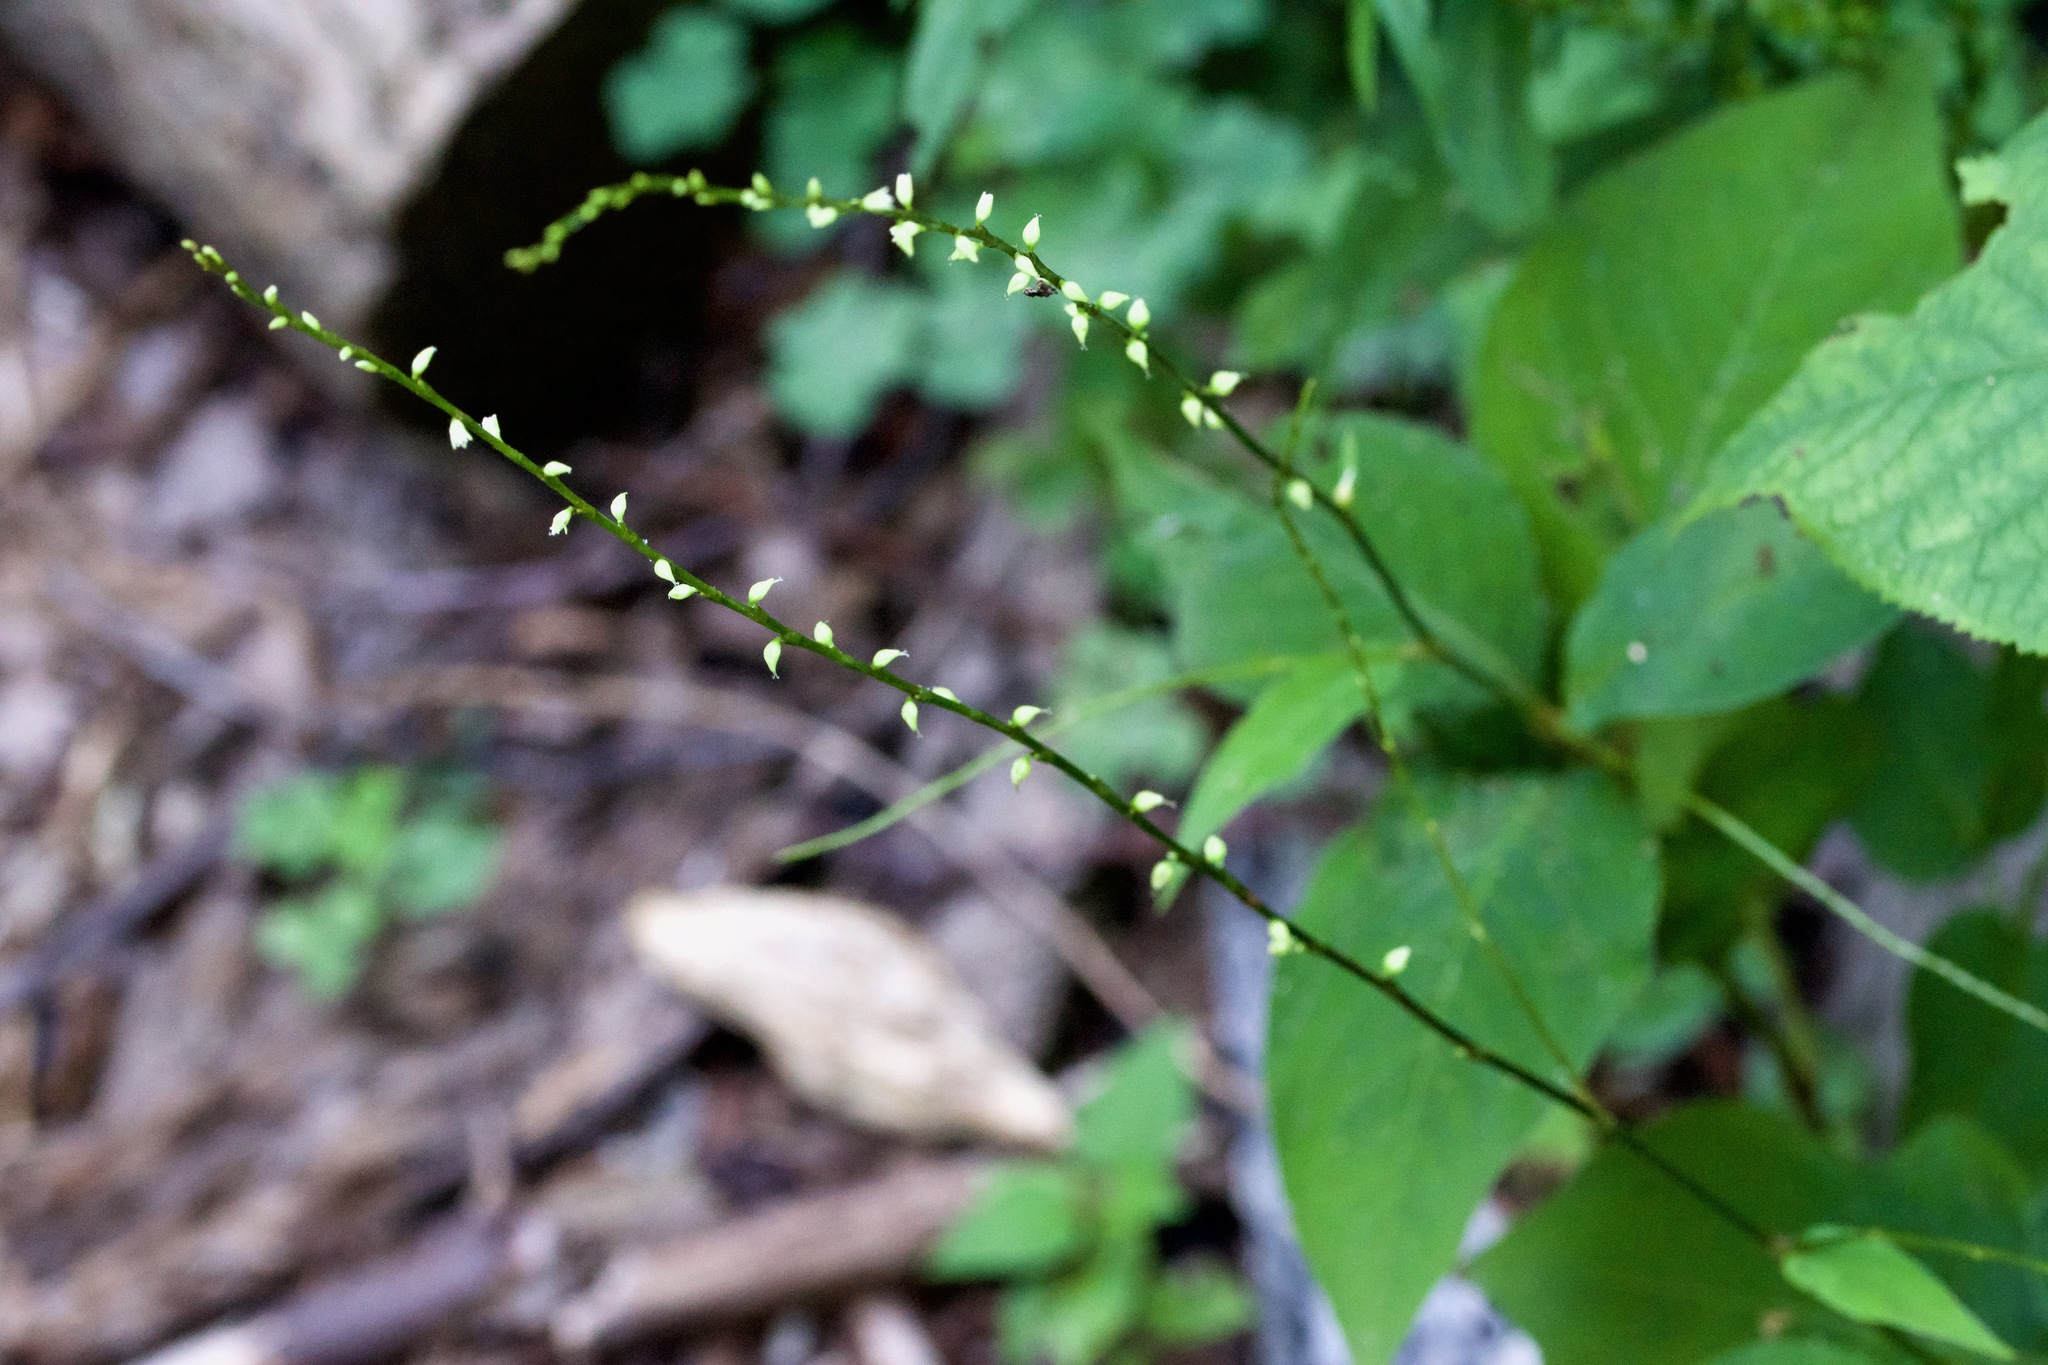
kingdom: Plantae
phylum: Tracheophyta
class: Magnoliopsida
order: Caryophyllales
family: Polygonaceae
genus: Persicaria
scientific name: Persicaria virginiana
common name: Jumpseed
